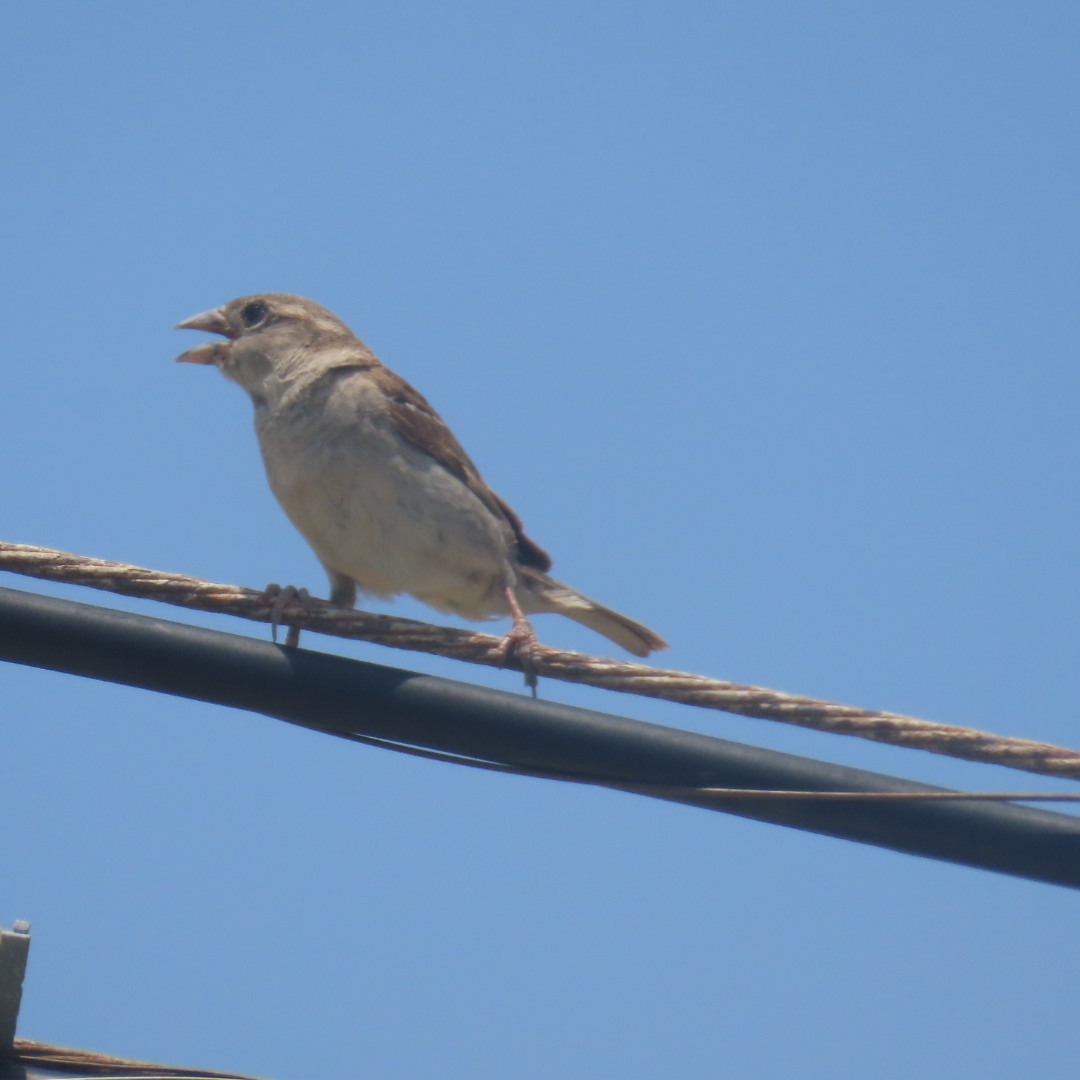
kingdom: Animalia
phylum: Chordata
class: Aves
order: Passeriformes
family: Passeridae
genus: Passer
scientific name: Passer domesticus
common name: House sparrow
